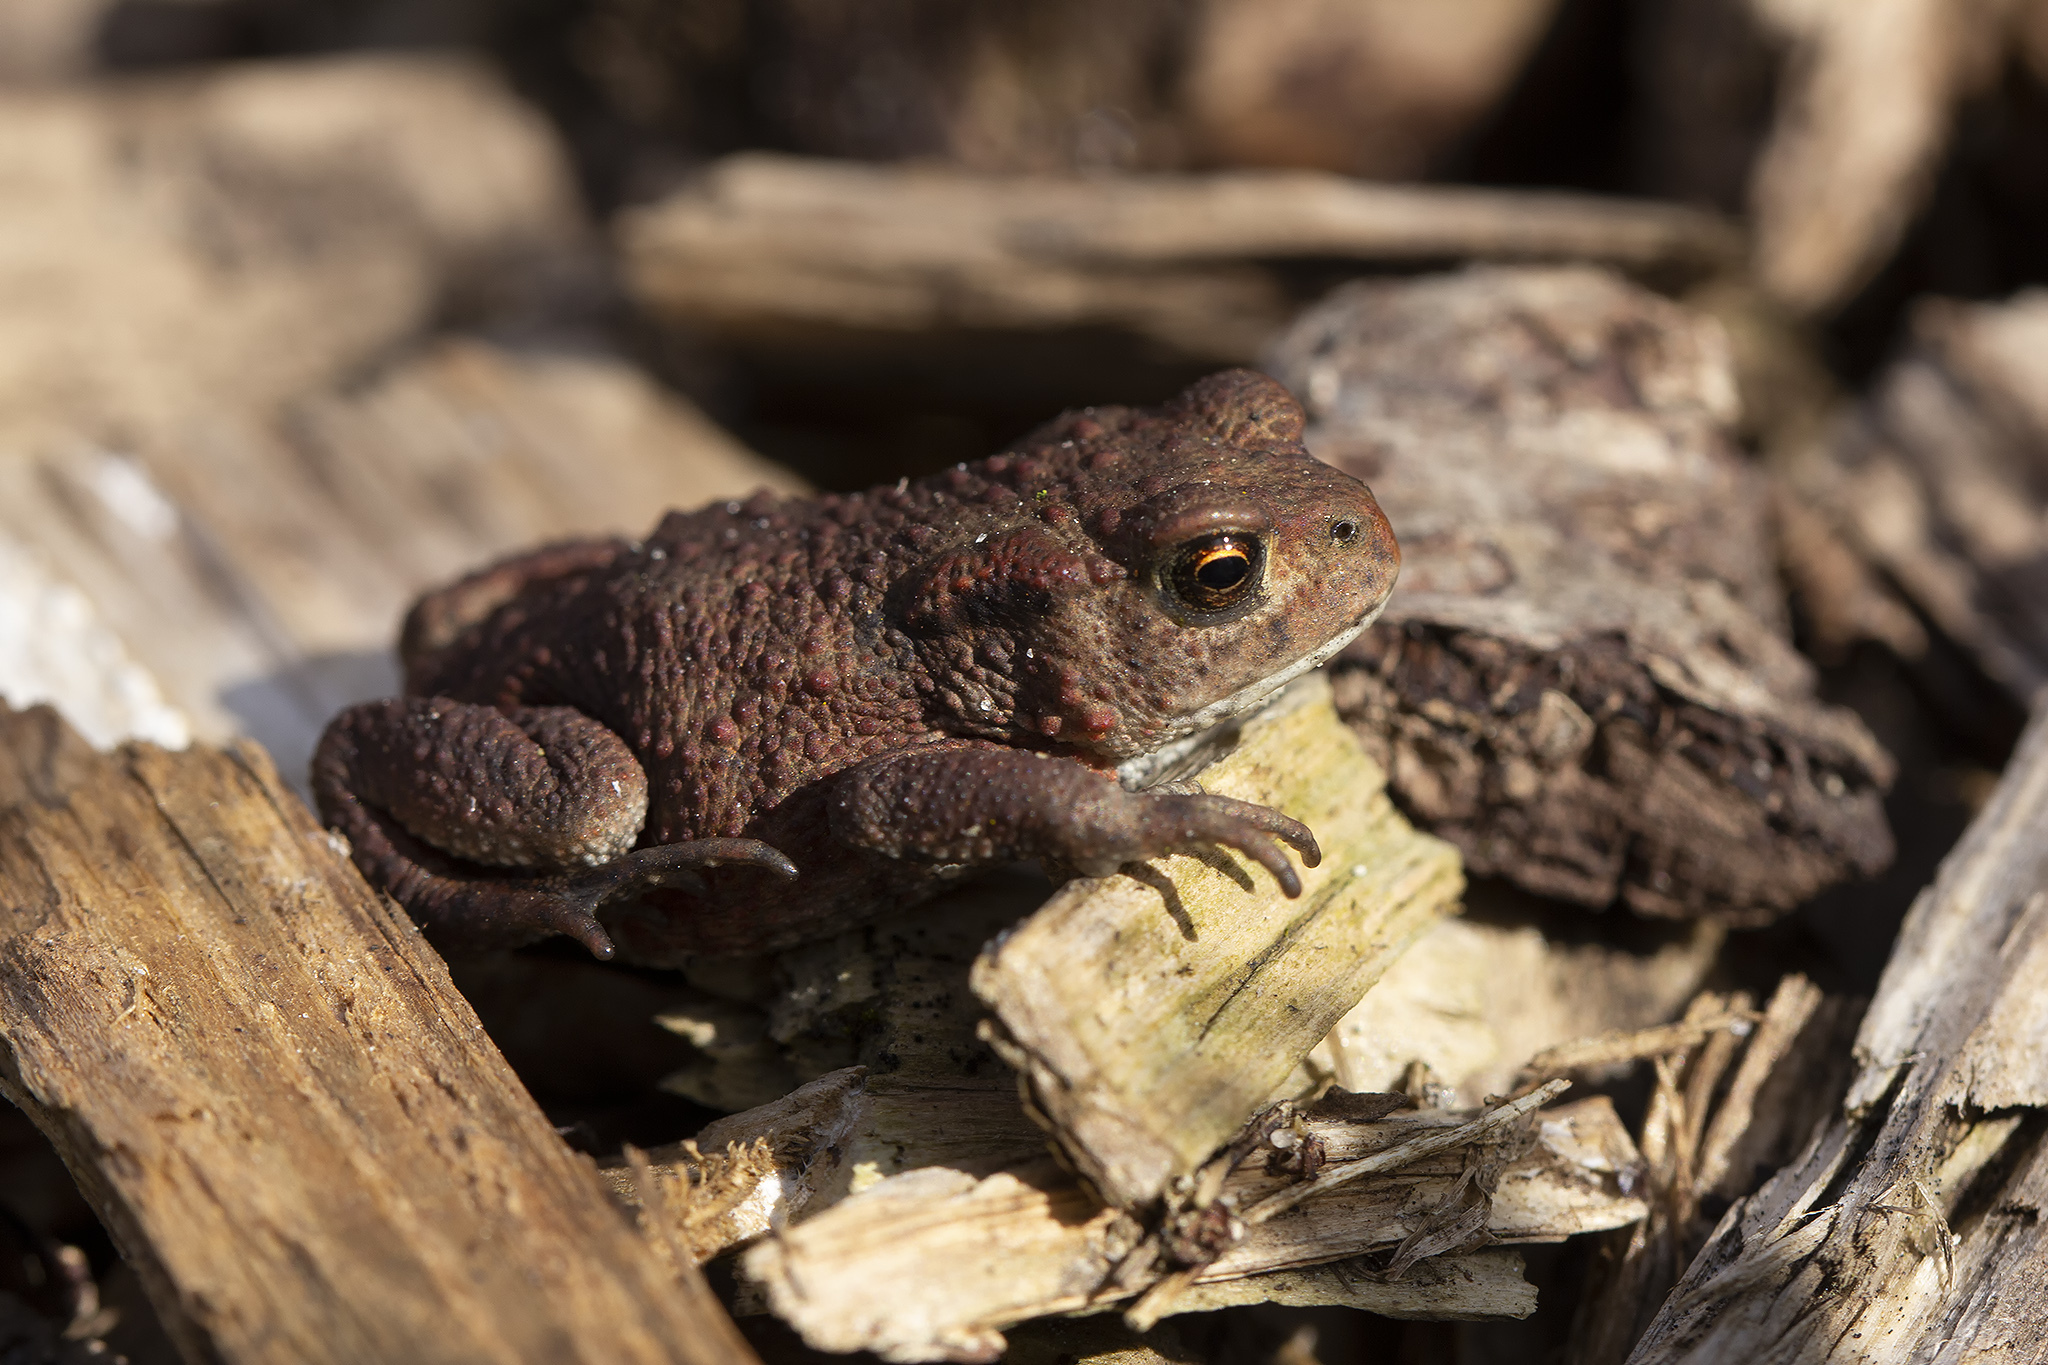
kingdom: Animalia
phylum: Chordata
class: Amphibia
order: Anura
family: Bufonidae
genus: Bufo
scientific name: Bufo bufo
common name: Common toad
